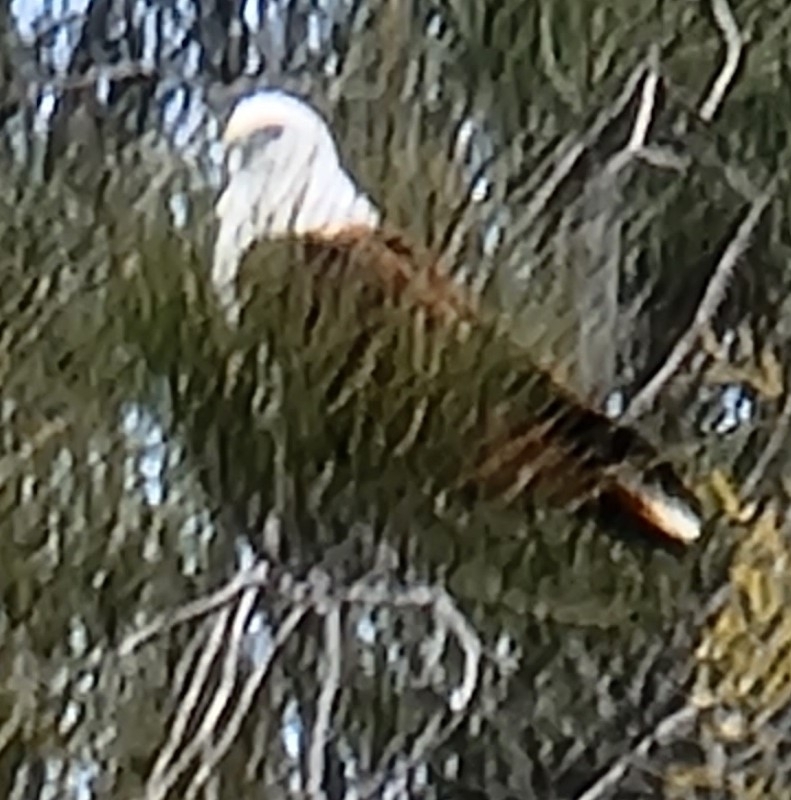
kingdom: Animalia
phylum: Chordata
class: Aves
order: Accipitriformes
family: Accipitridae
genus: Haliastur
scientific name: Haliastur indus
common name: Brahminy kite
